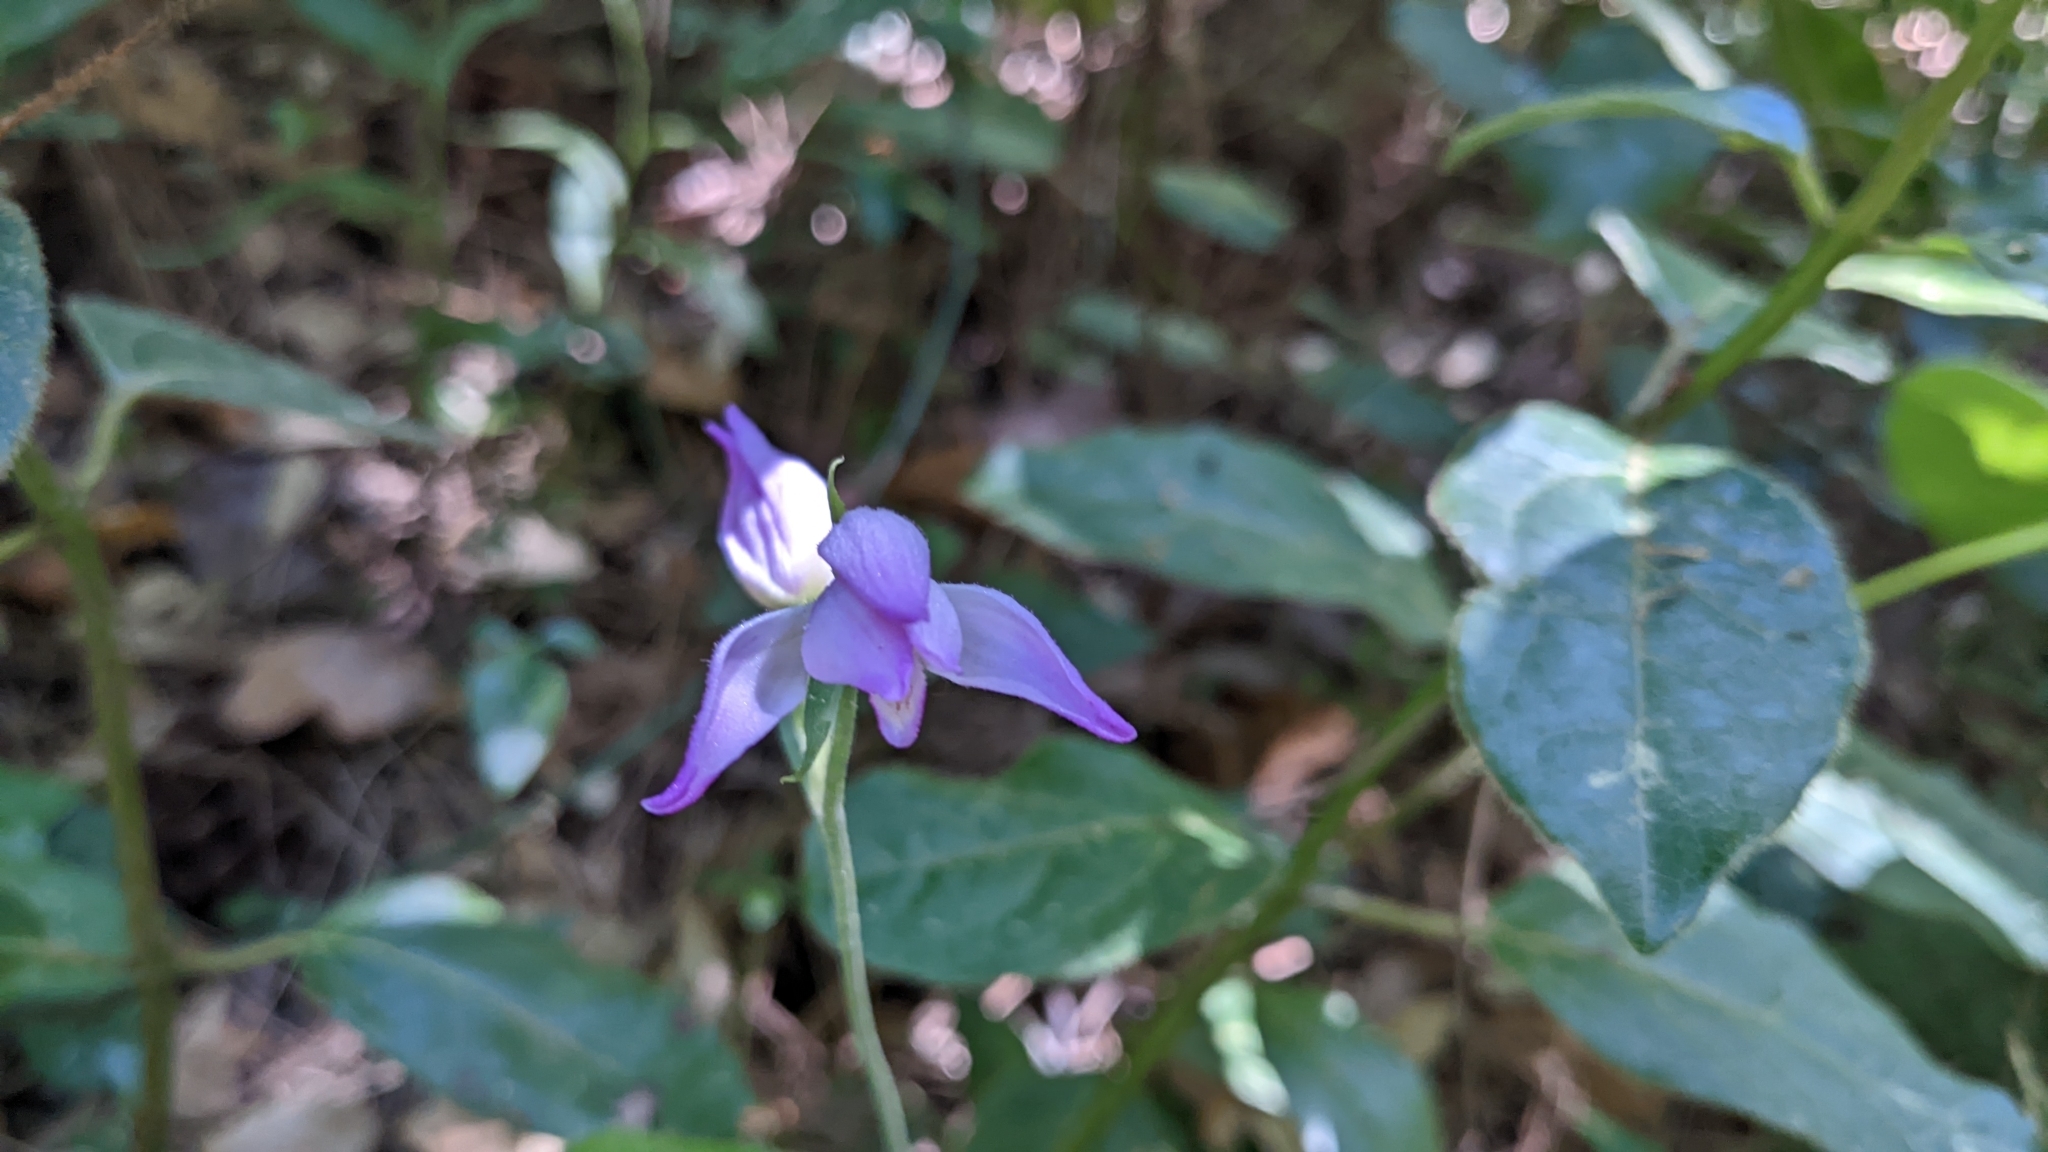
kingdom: Plantae
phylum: Tracheophyta
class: Liliopsida
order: Asparagales
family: Orchidaceae
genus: Cephalanthera
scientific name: Cephalanthera rubra
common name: Red helleborine
